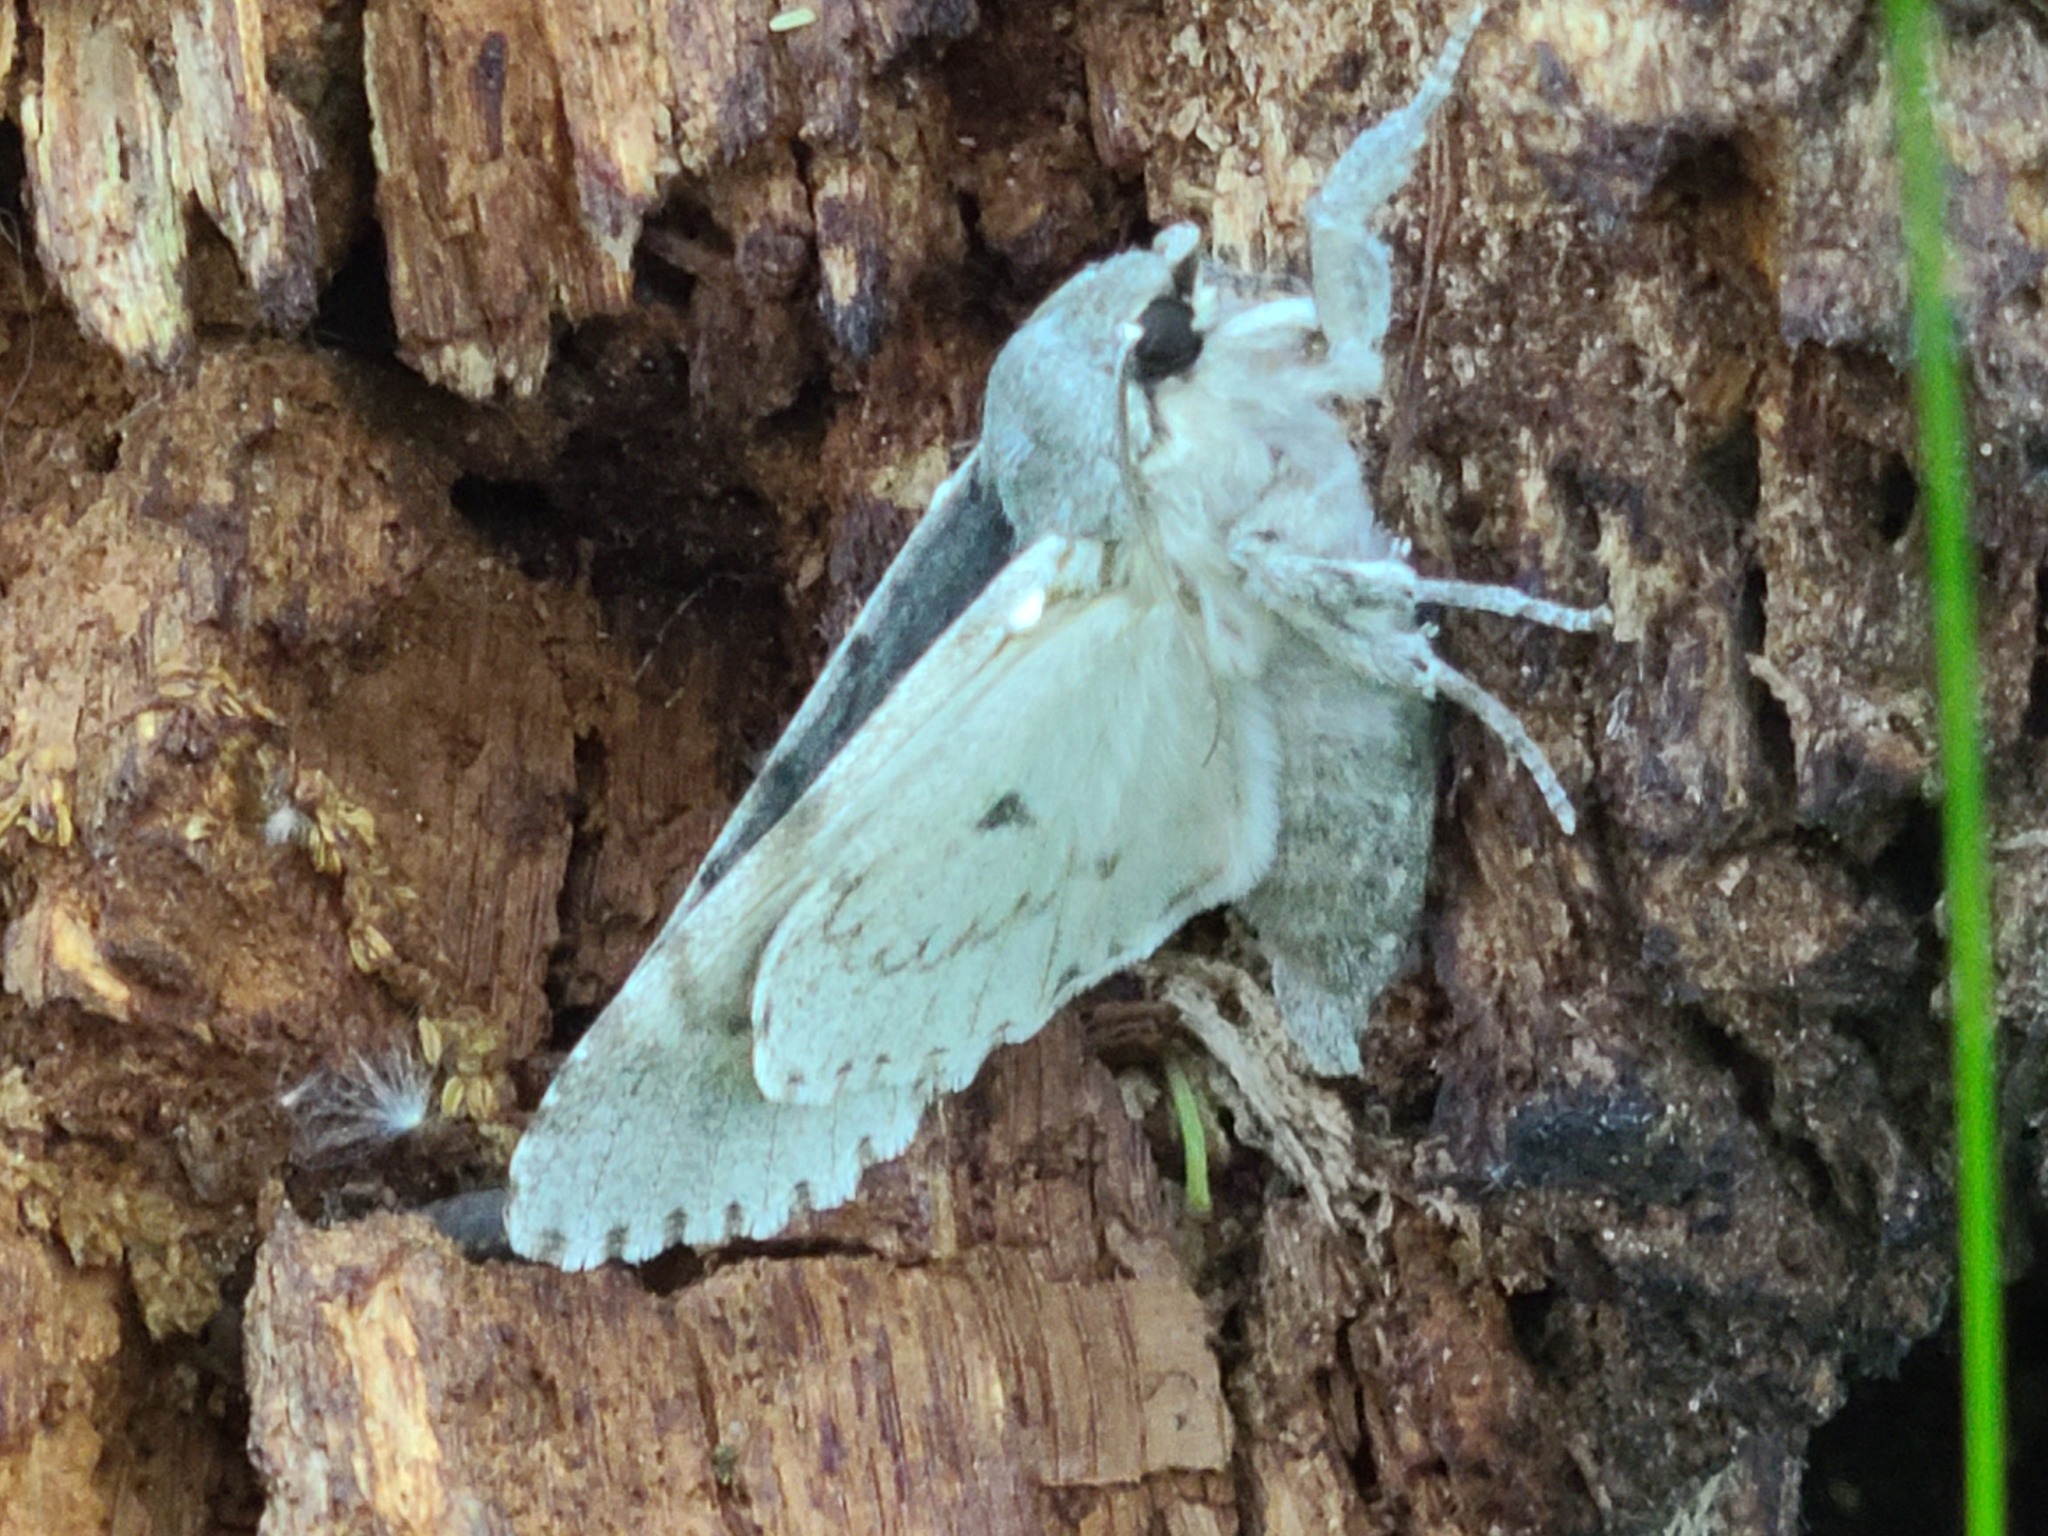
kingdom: Animalia
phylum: Arthropoda
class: Insecta
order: Lepidoptera
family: Erebidae
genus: Lymantria
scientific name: Lymantria dispar
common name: Gypsy moth
